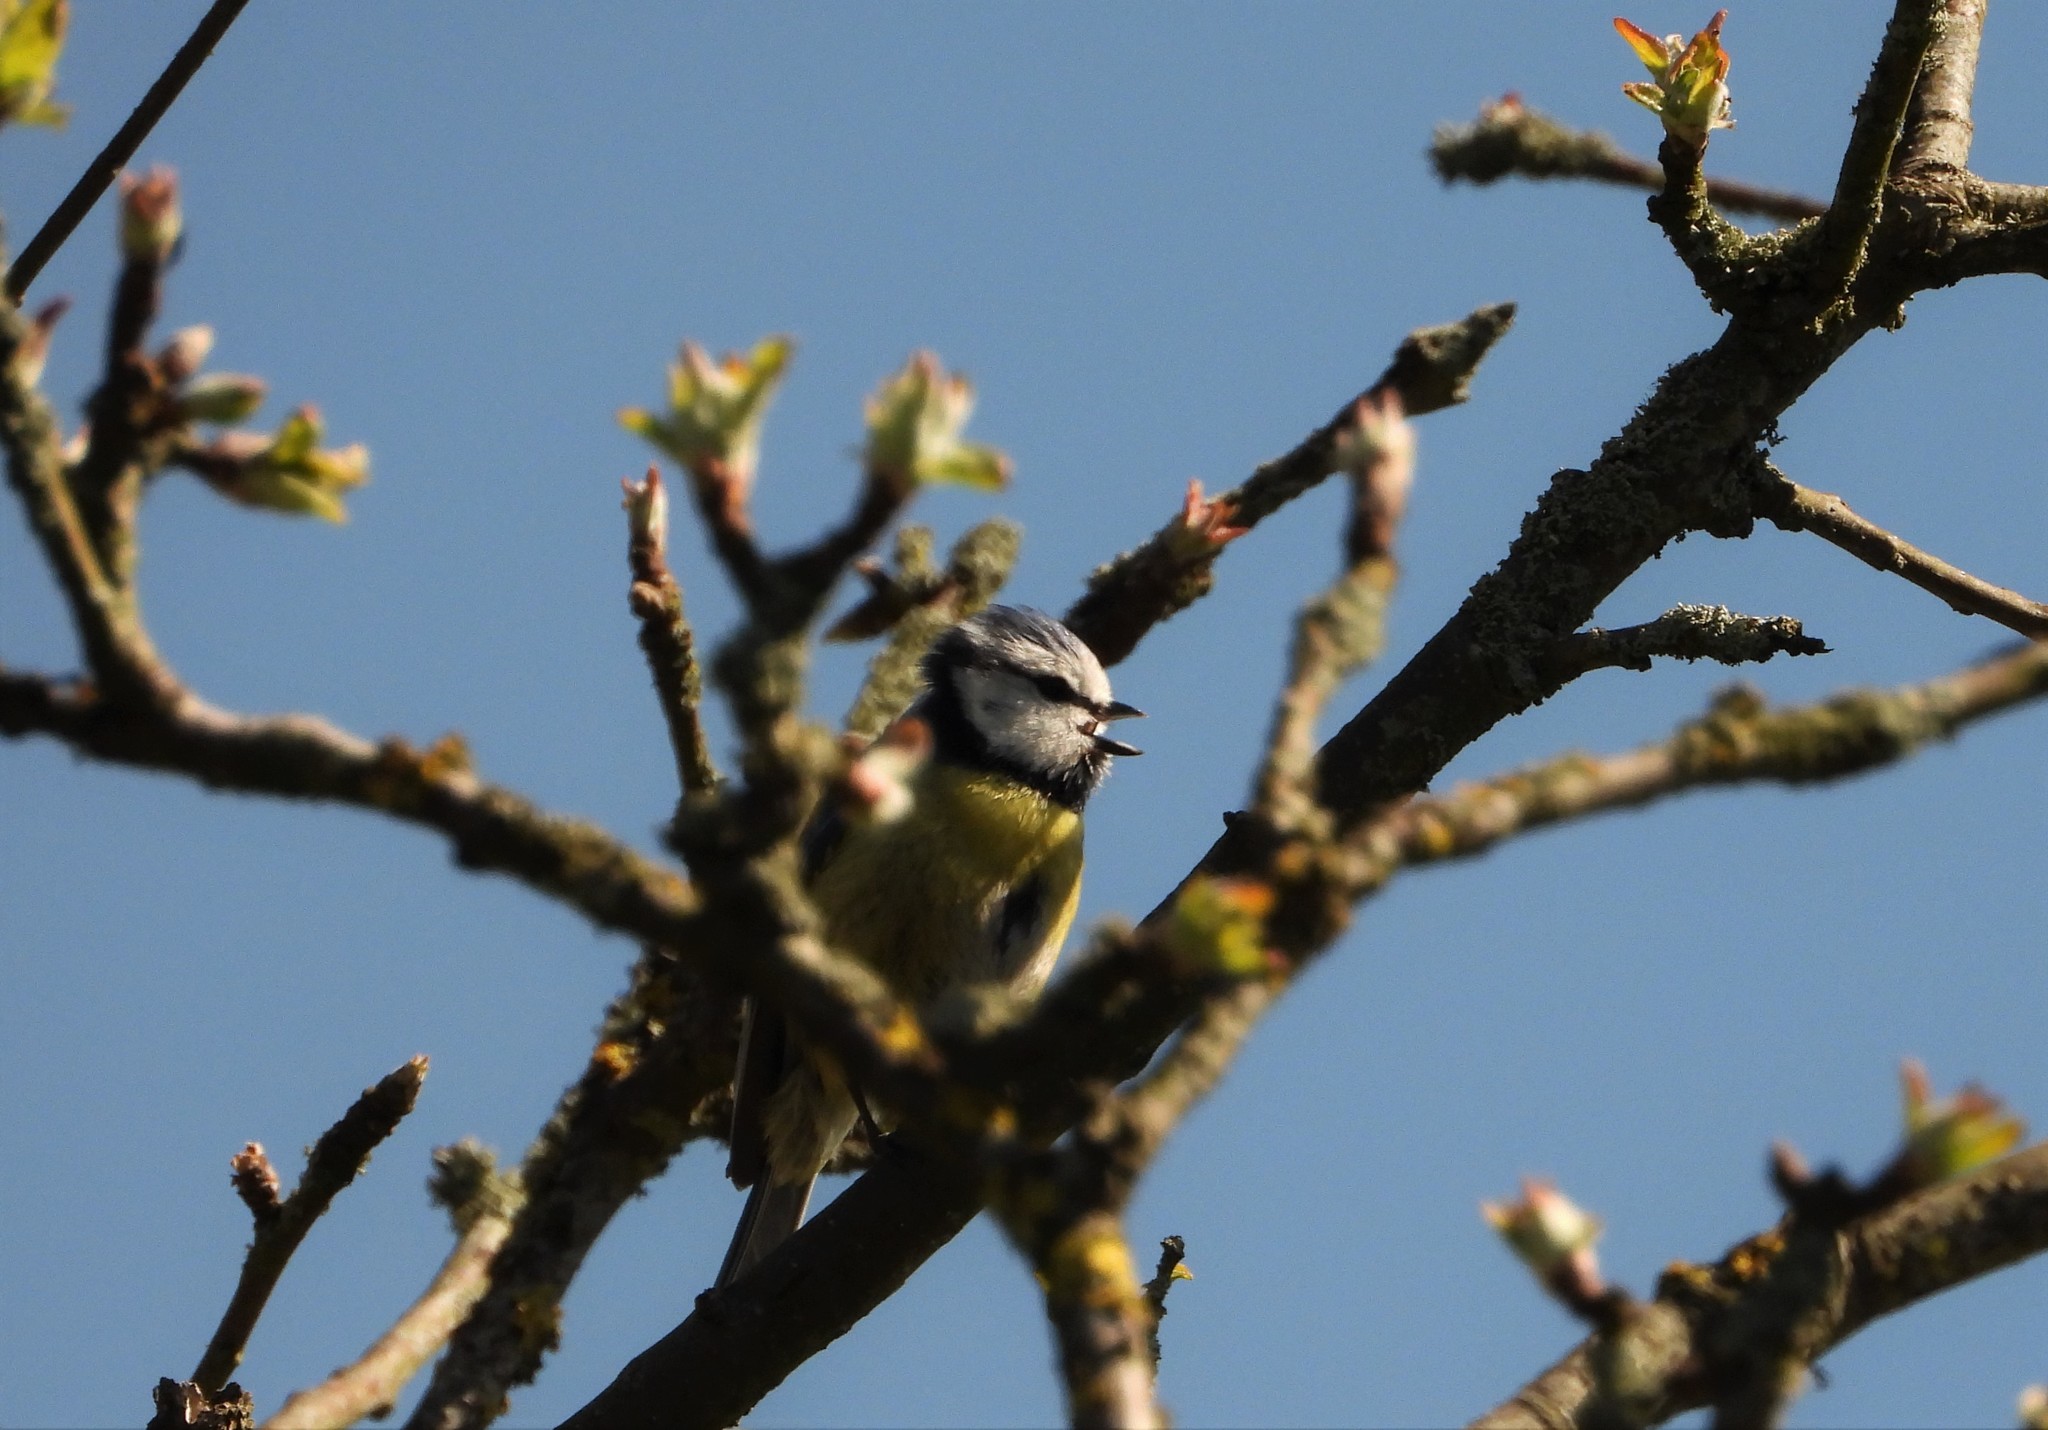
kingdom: Animalia
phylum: Chordata
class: Aves
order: Passeriformes
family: Paridae
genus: Cyanistes
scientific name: Cyanistes caeruleus
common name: Eurasian blue tit
